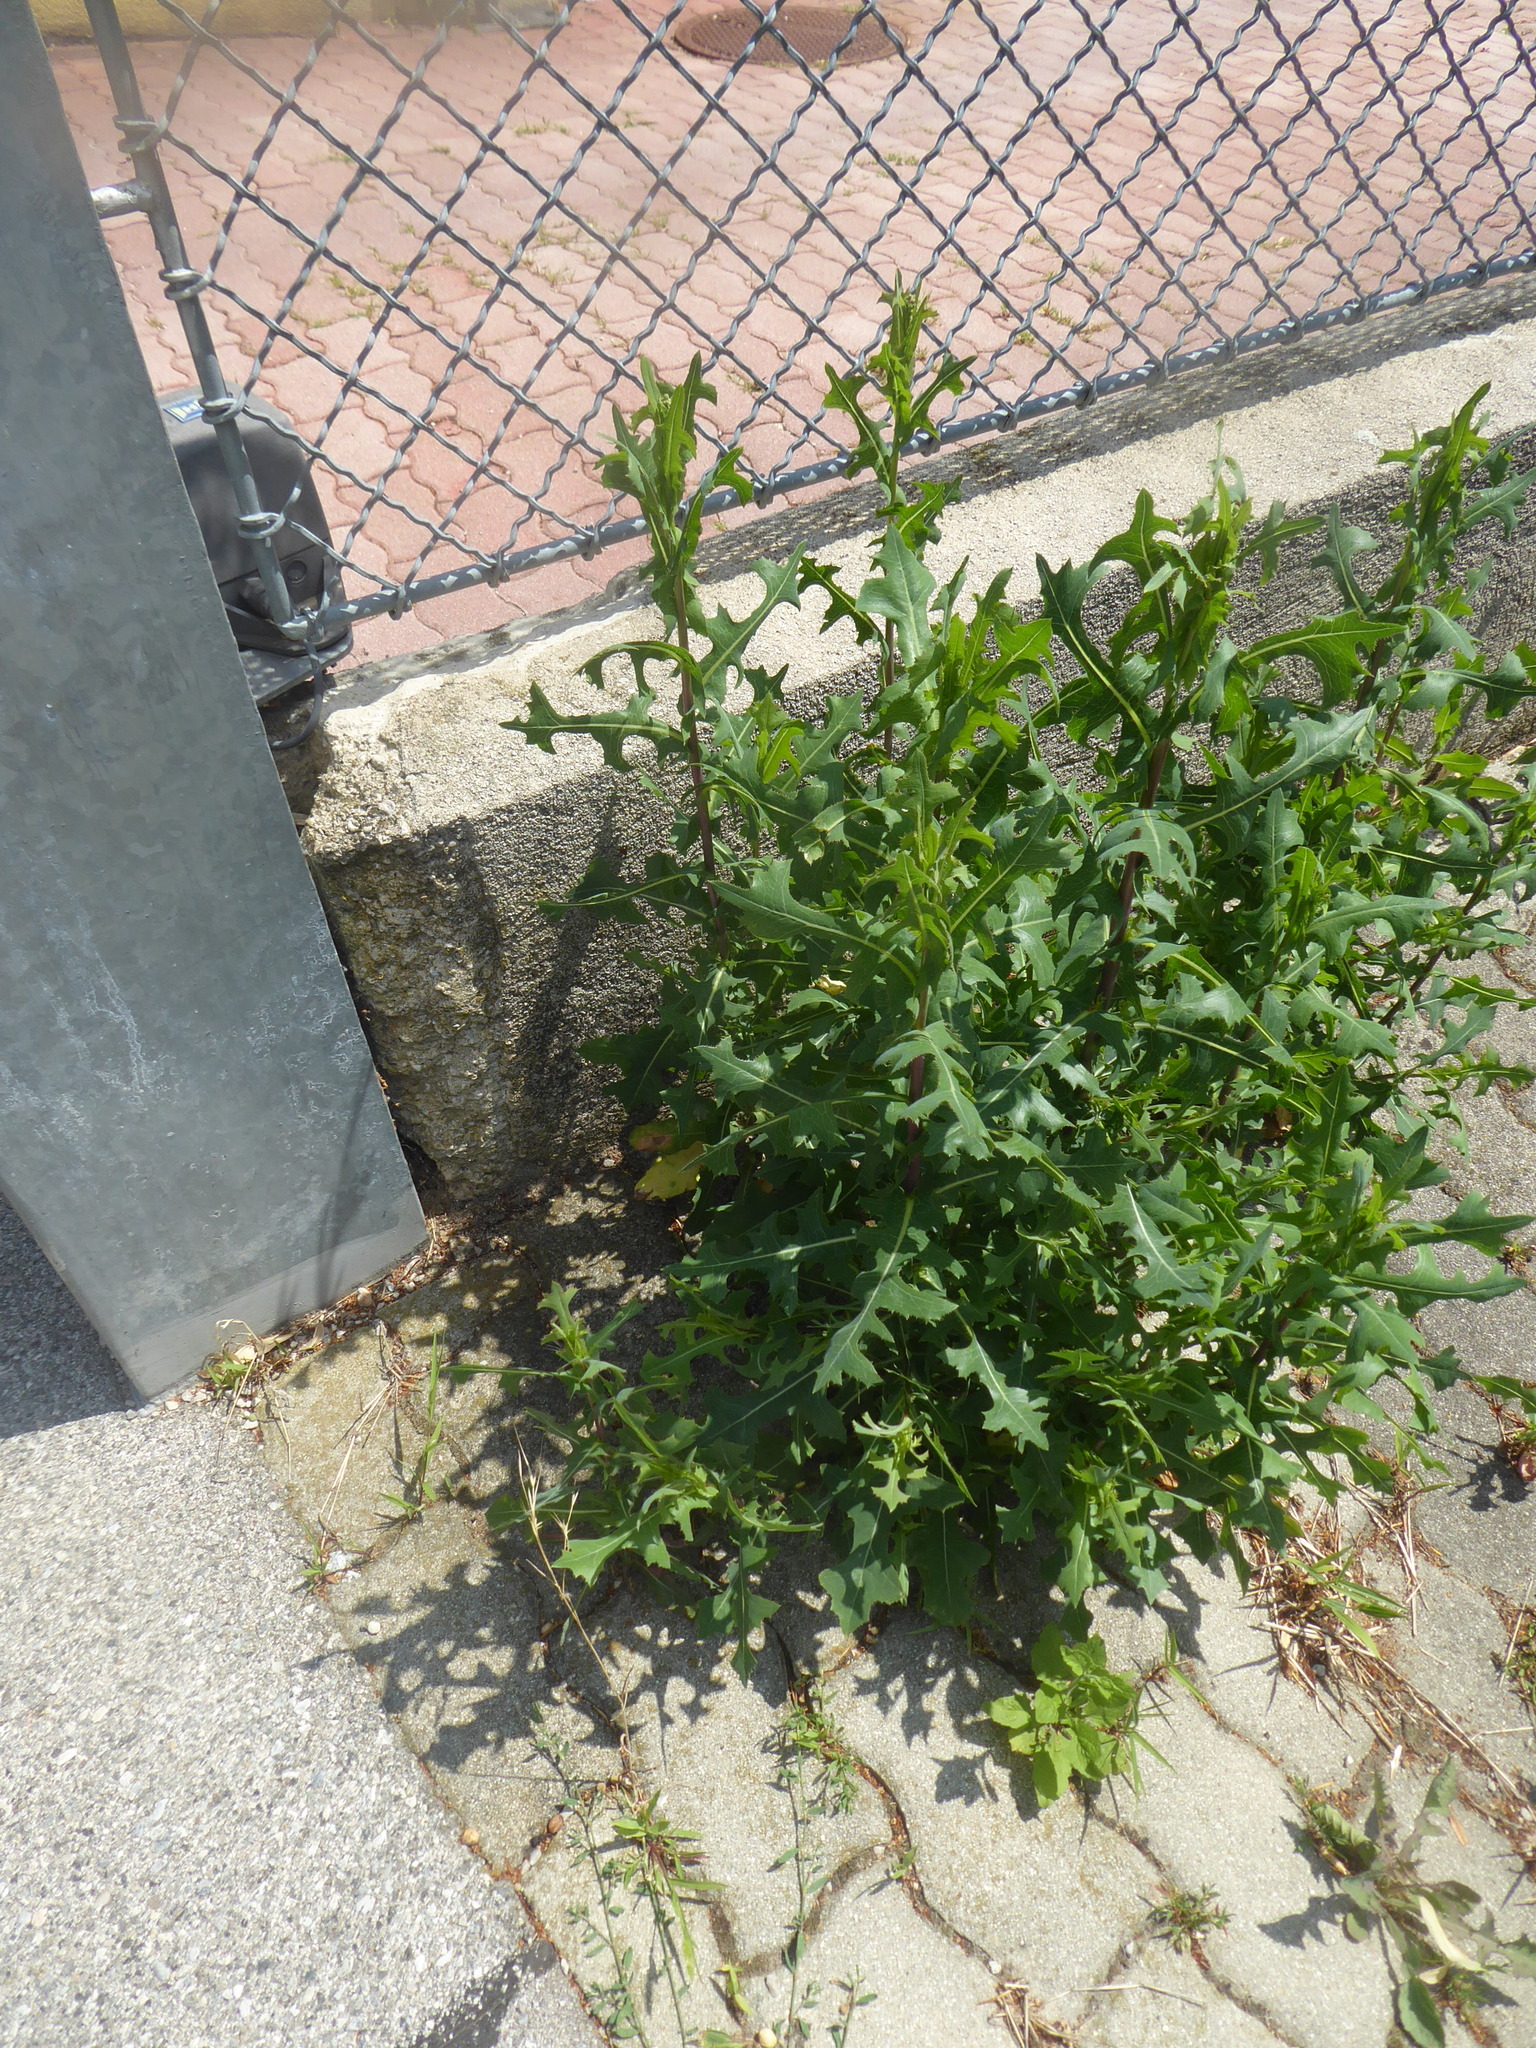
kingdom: Plantae
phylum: Tracheophyta
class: Magnoliopsida
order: Asterales
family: Asteraceae
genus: Lactuca
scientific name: Lactuca serriola
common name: Prickly lettuce
